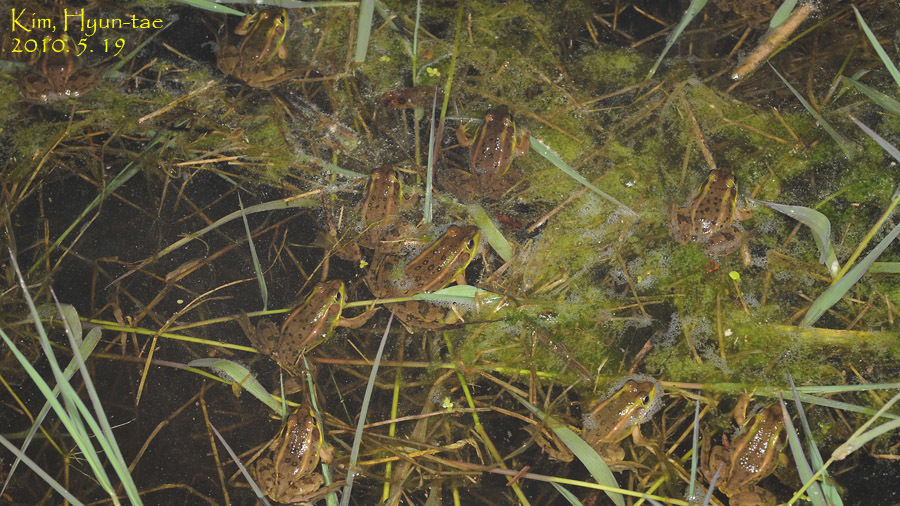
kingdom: Animalia
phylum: Chordata
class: Amphibia
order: Anura
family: Ranidae
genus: Pelophylax
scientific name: Pelophylax chosenicus
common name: Gold-spotted pond frog
